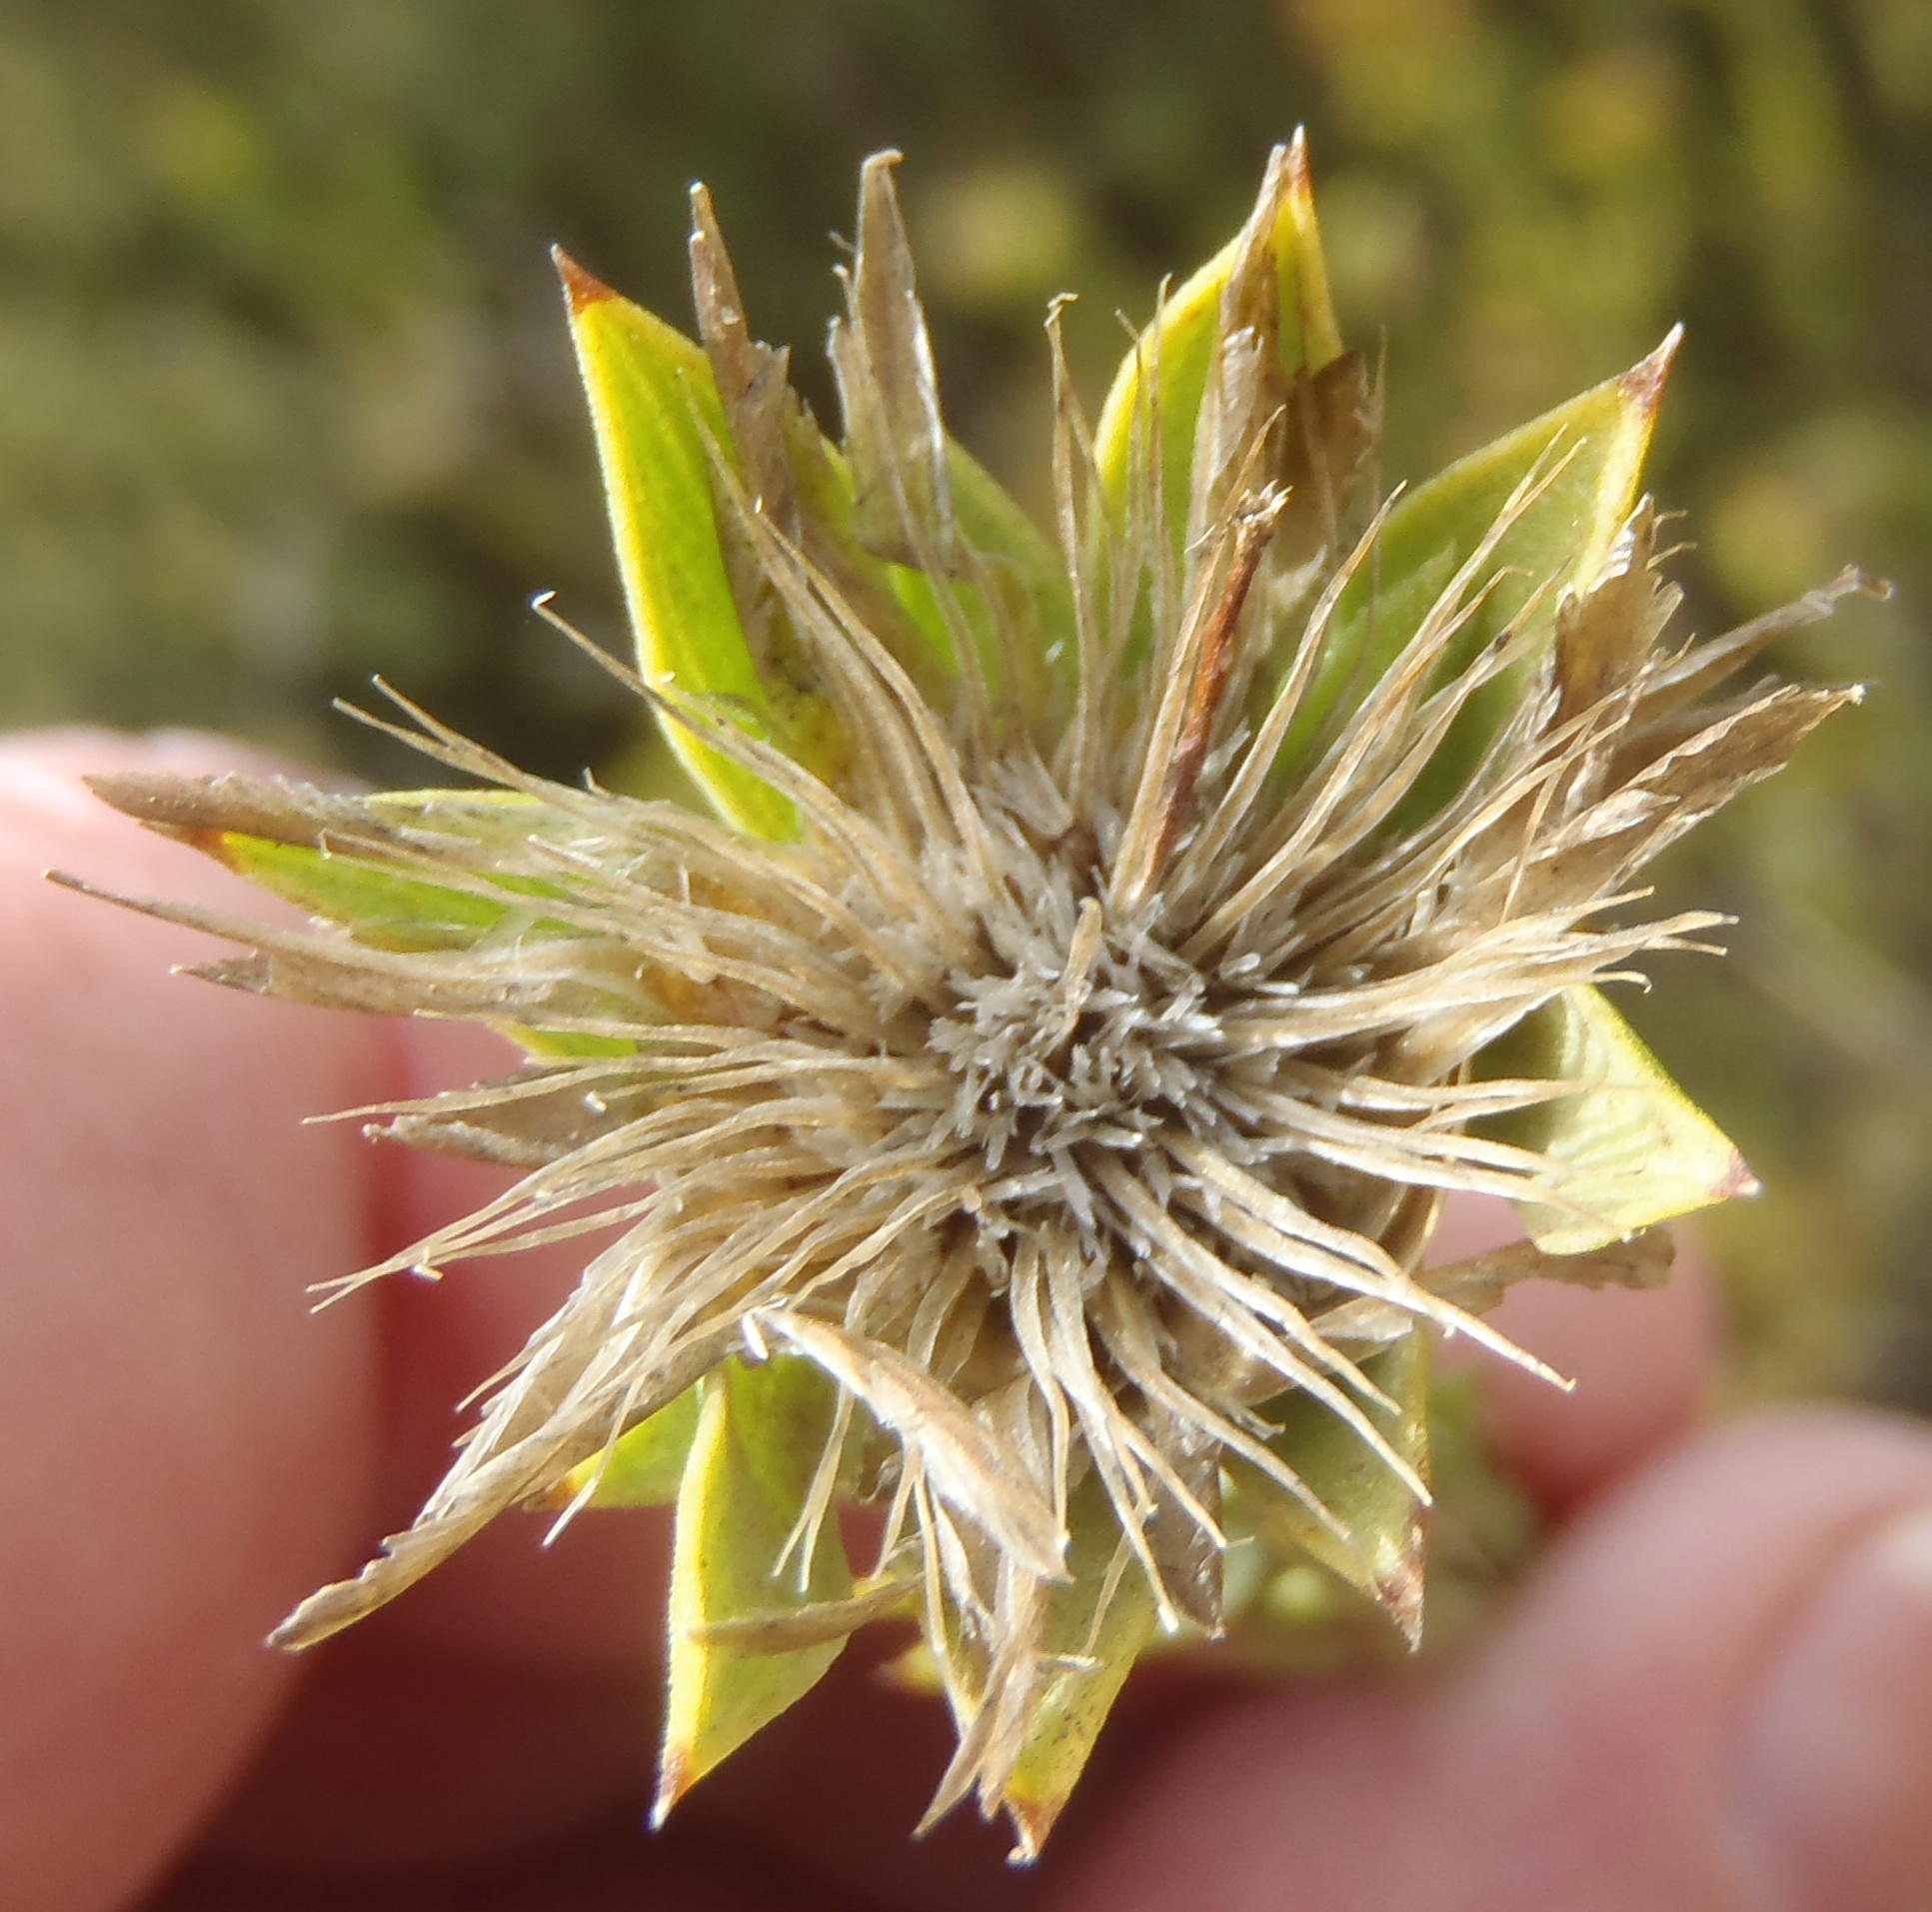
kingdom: Plantae
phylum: Tracheophyta
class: Magnoliopsida
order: Asterales
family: Asteraceae
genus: Oedera
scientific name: Oedera calycina
